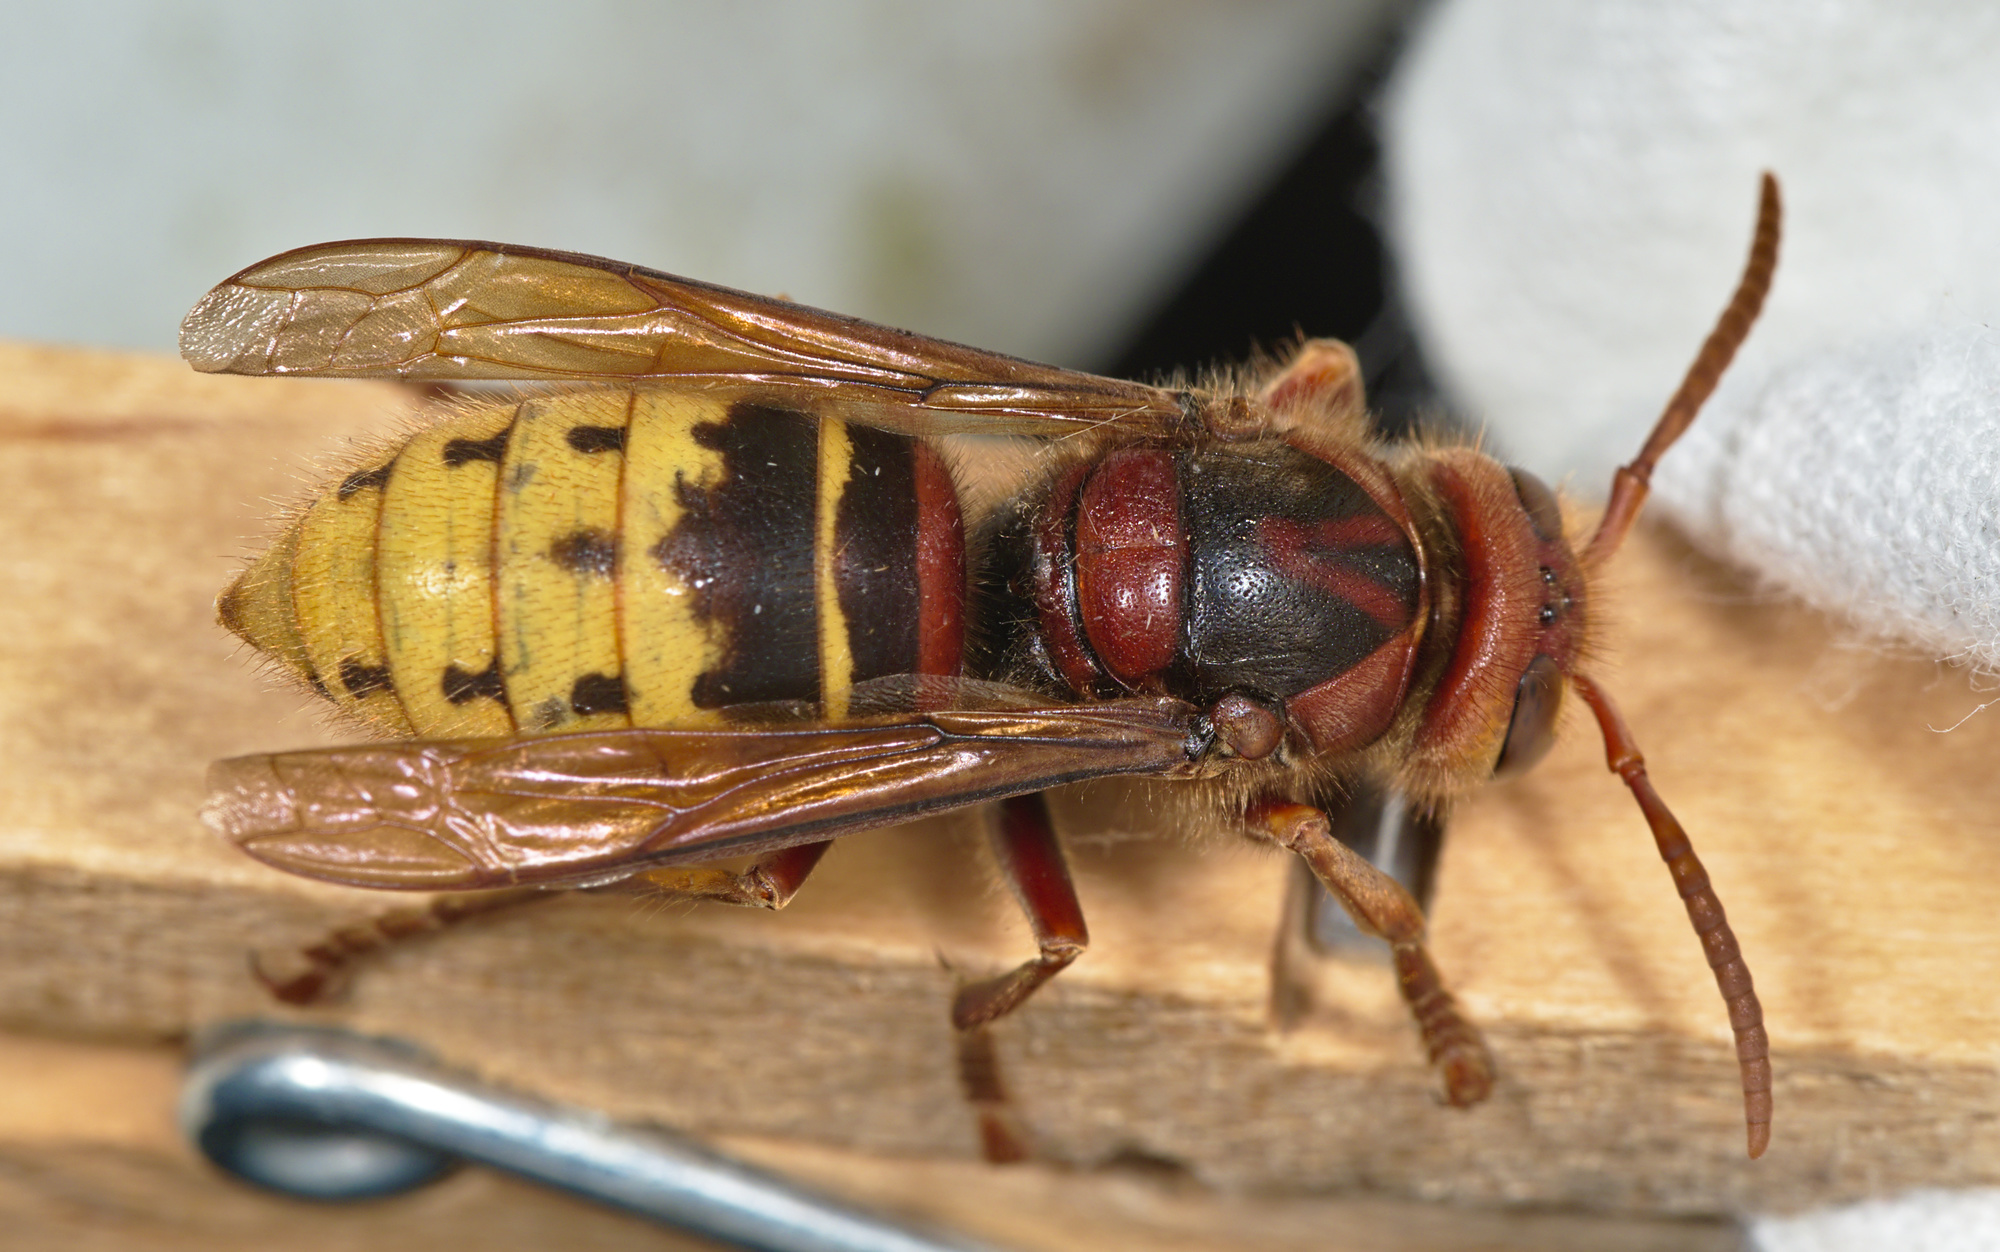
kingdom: Animalia
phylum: Arthropoda
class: Insecta
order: Hymenoptera
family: Vespidae
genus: Vespa
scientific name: Vespa crabro
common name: Hornet
